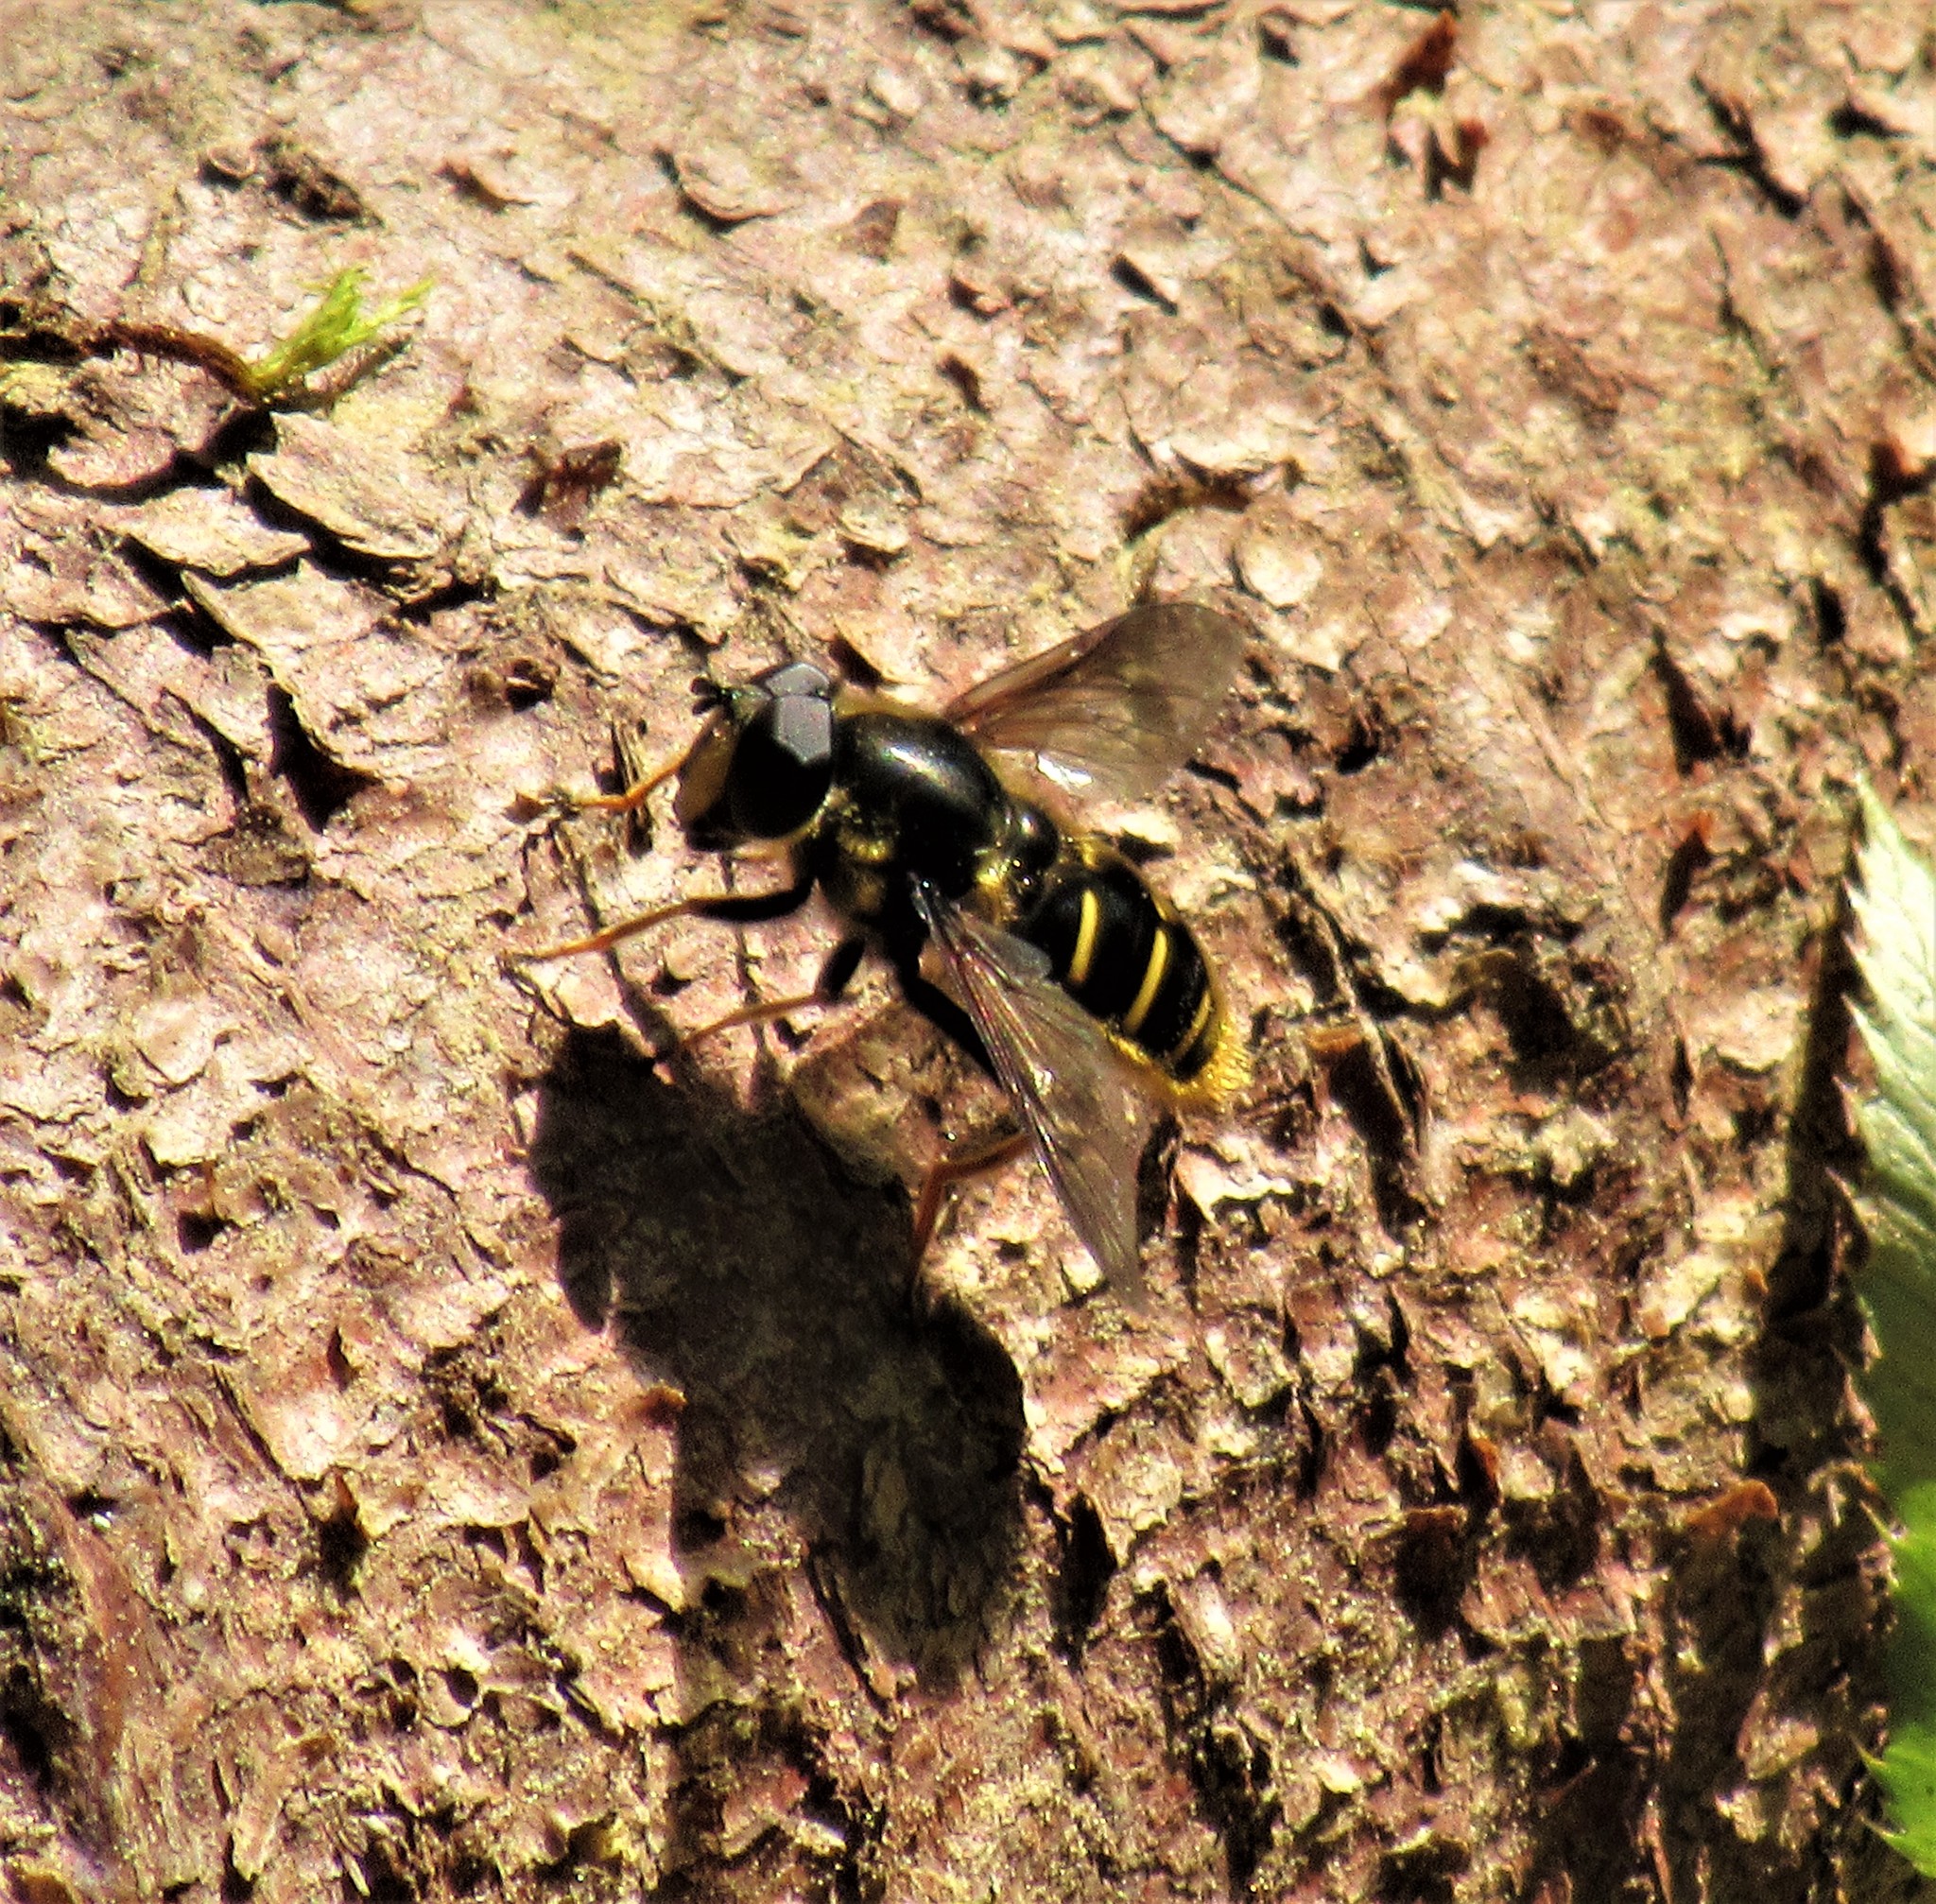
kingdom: Animalia
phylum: Arthropoda
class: Insecta
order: Diptera
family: Syrphidae
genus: Sericomyia
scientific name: Sericomyia chalcopyga
